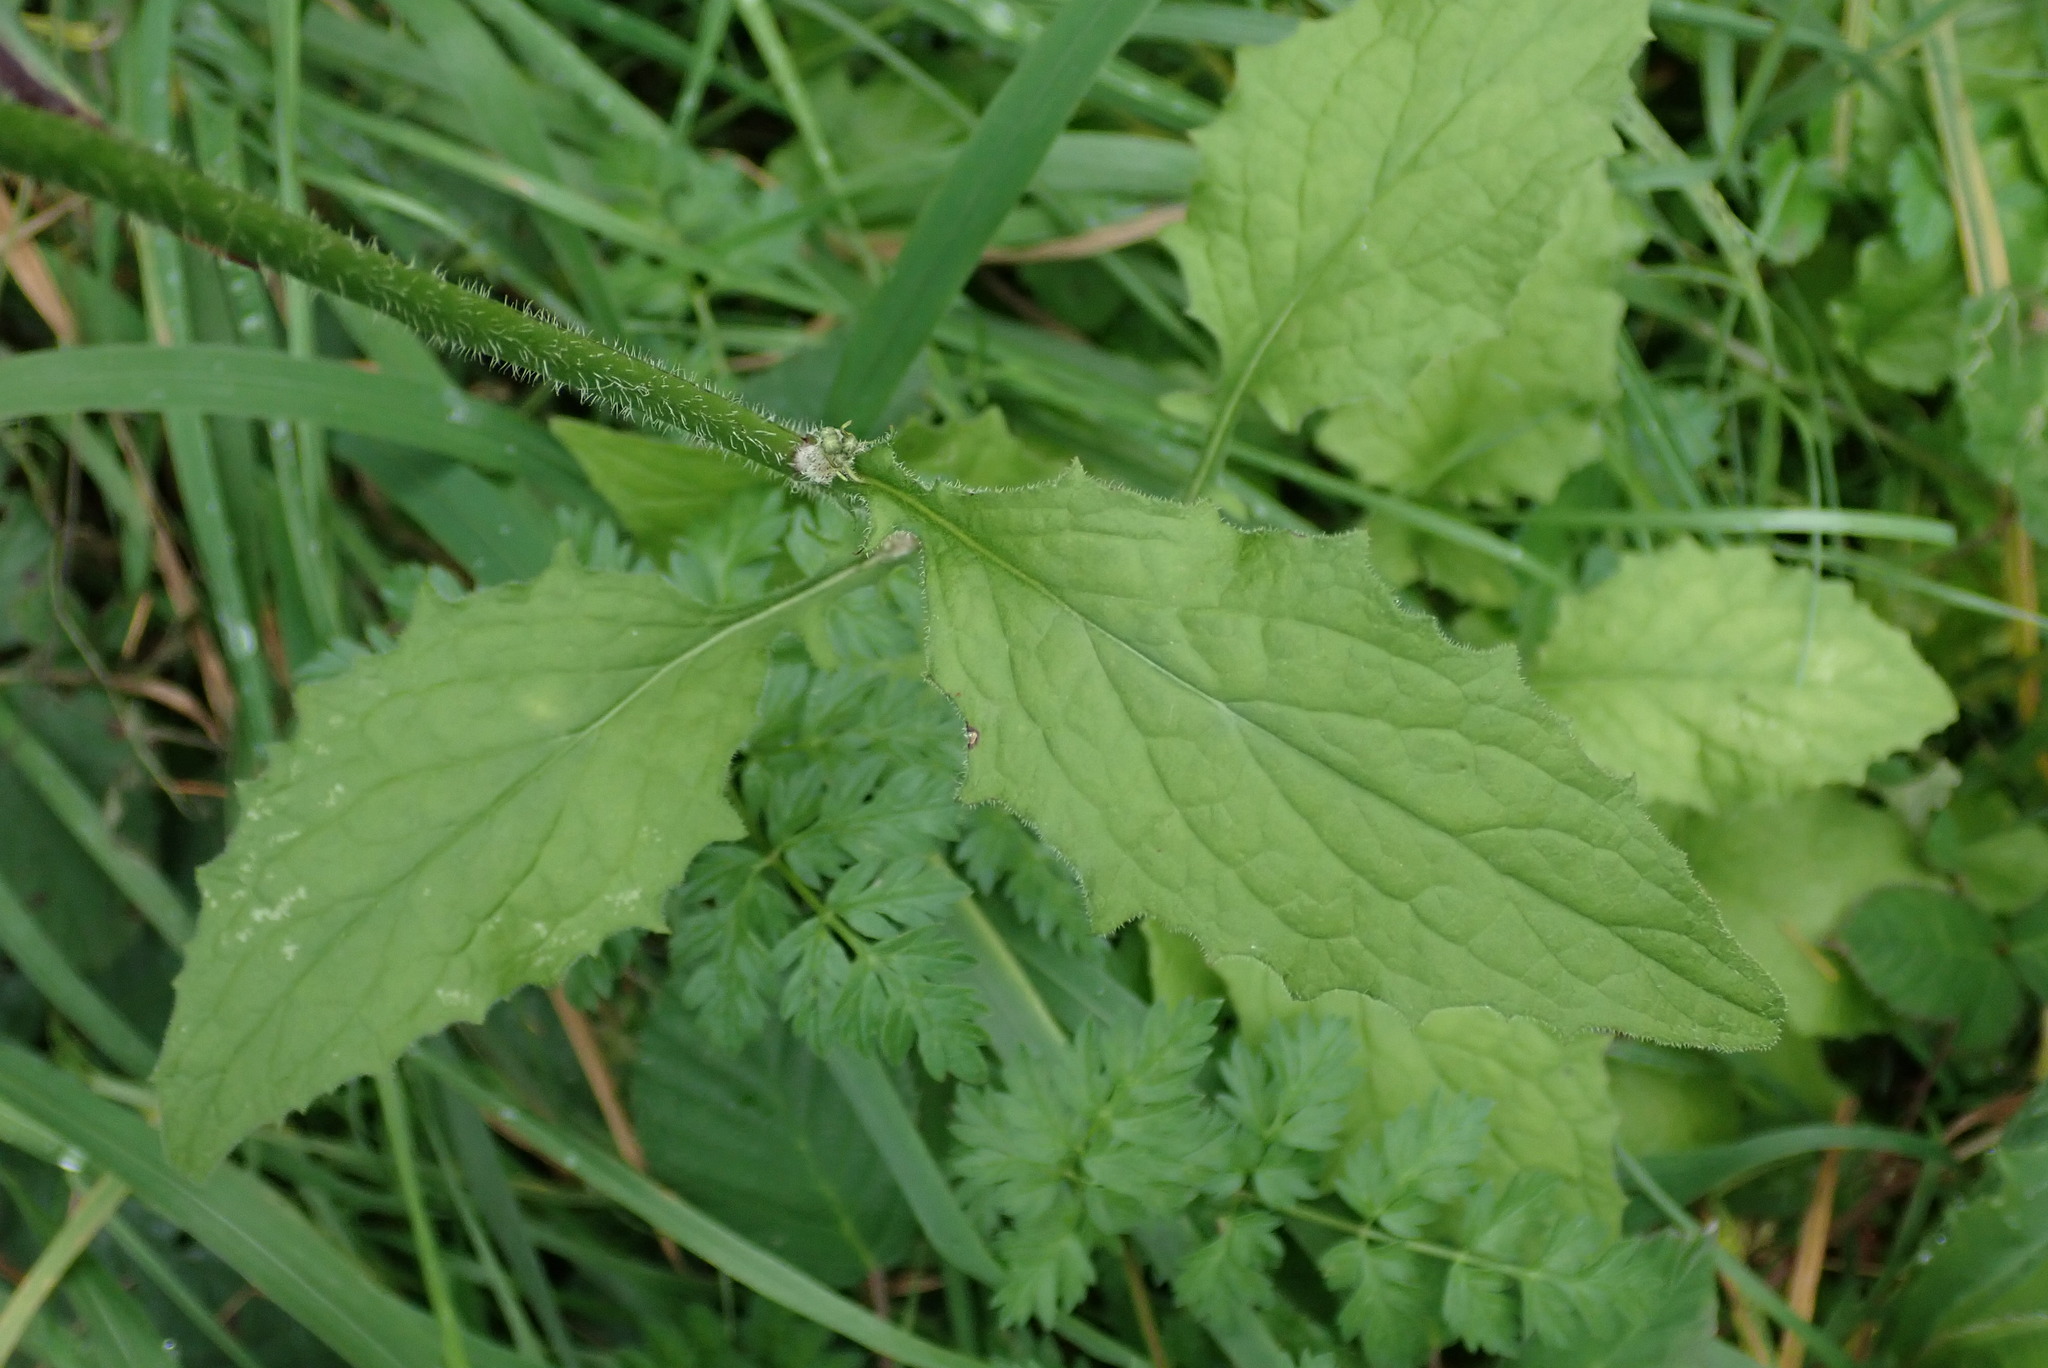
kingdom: Plantae
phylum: Tracheophyta
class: Magnoliopsida
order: Asterales
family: Asteraceae
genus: Lapsana
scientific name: Lapsana communis
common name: Nipplewort
